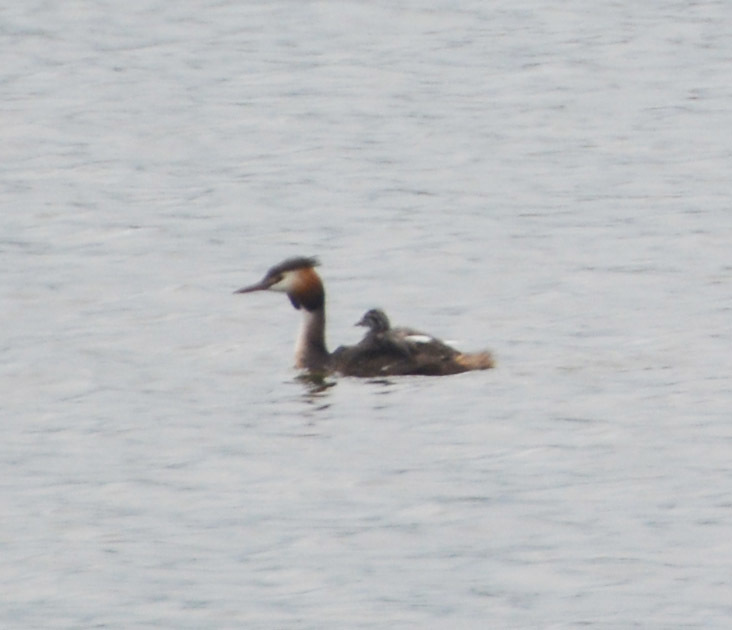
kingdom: Animalia
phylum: Chordata
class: Aves
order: Podicipediformes
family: Podicipedidae
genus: Podiceps
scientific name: Podiceps cristatus
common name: Great crested grebe
